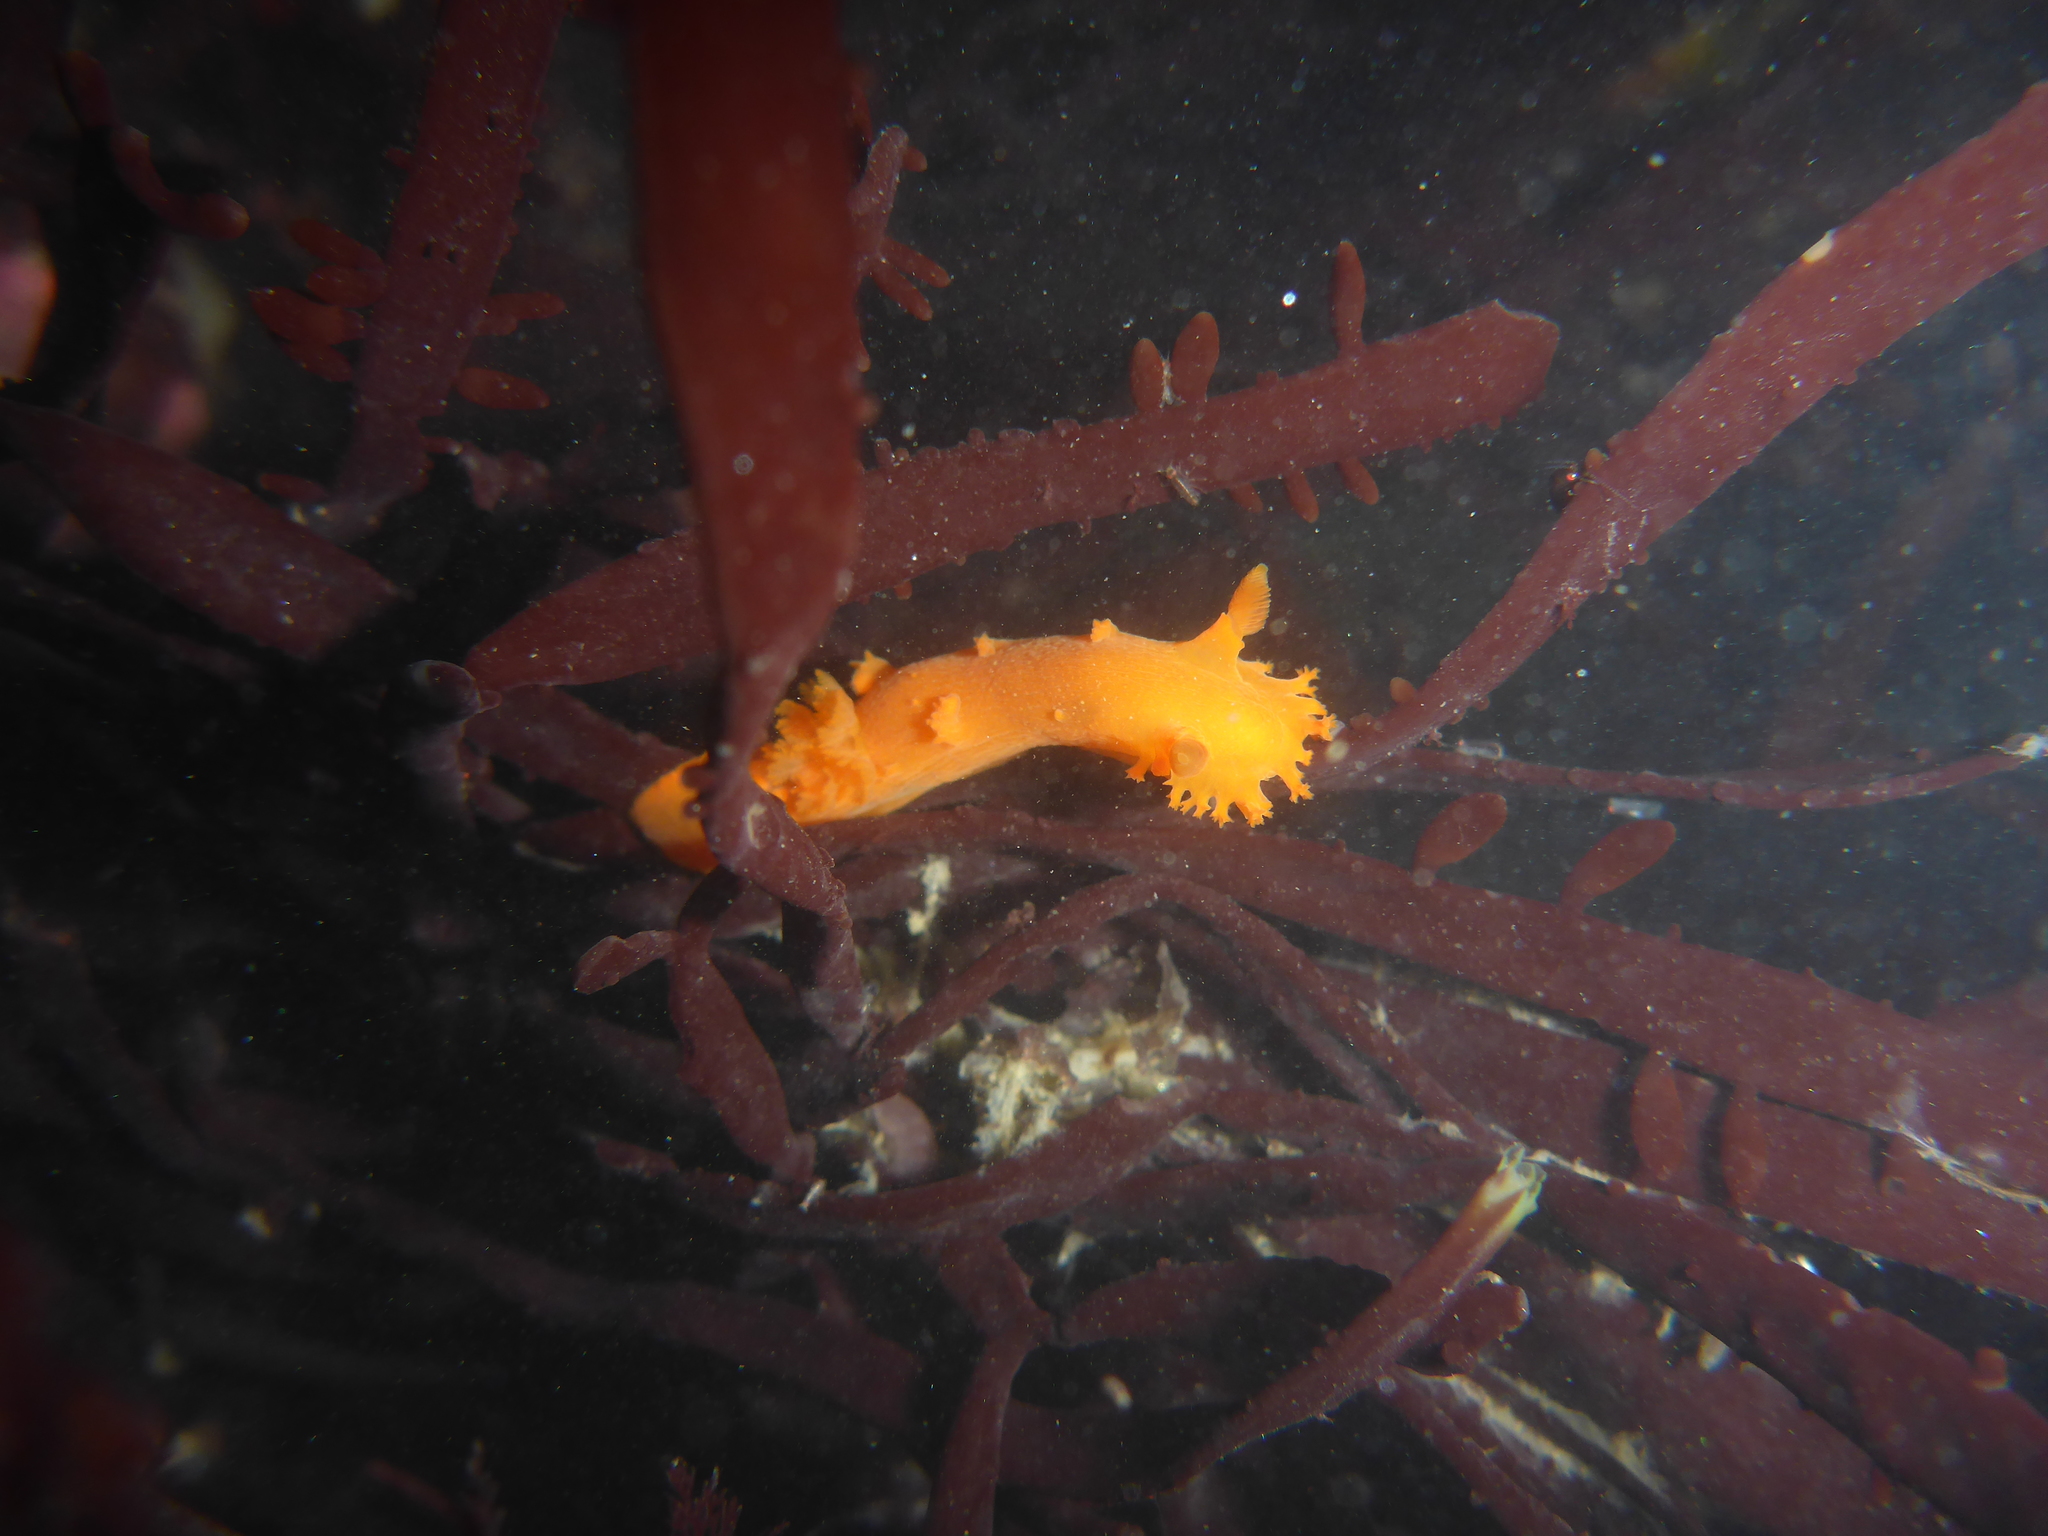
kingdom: Animalia
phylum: Mollusca
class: Gastropoda
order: Nudibranchia
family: Polyceridae
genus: Triopha
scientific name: Triopha maculata
